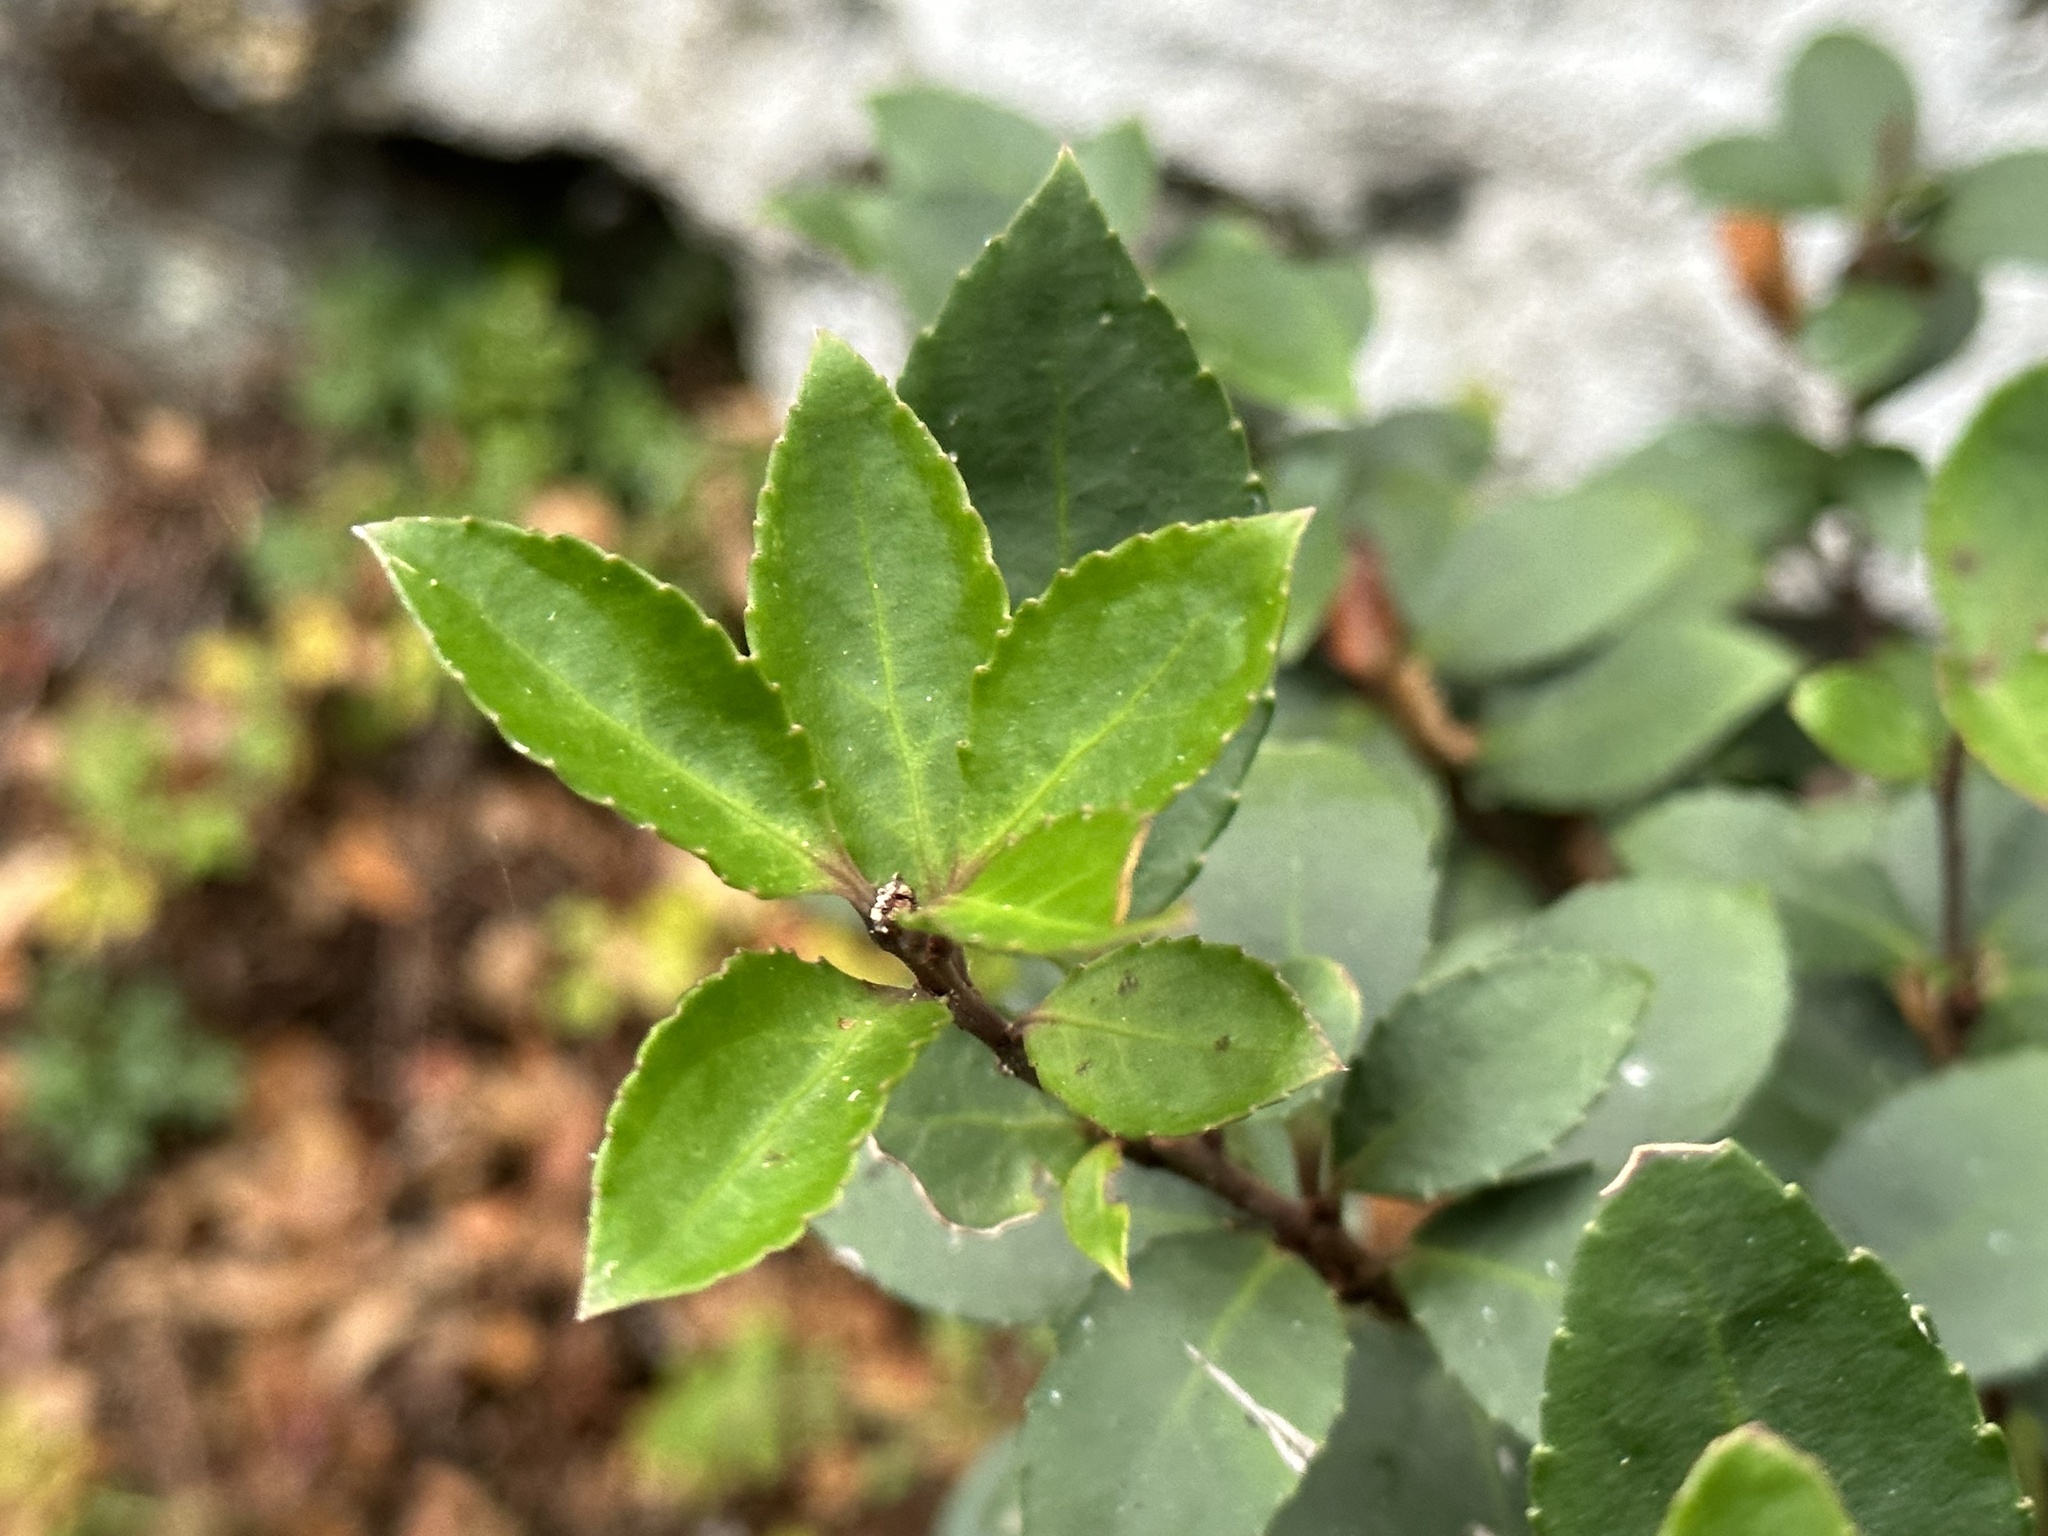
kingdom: Plantae
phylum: Tracheophyta
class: Magnoliopsida
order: Celastrales
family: Celastraceae
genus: Maytenus
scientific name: Maytenus magellanica
